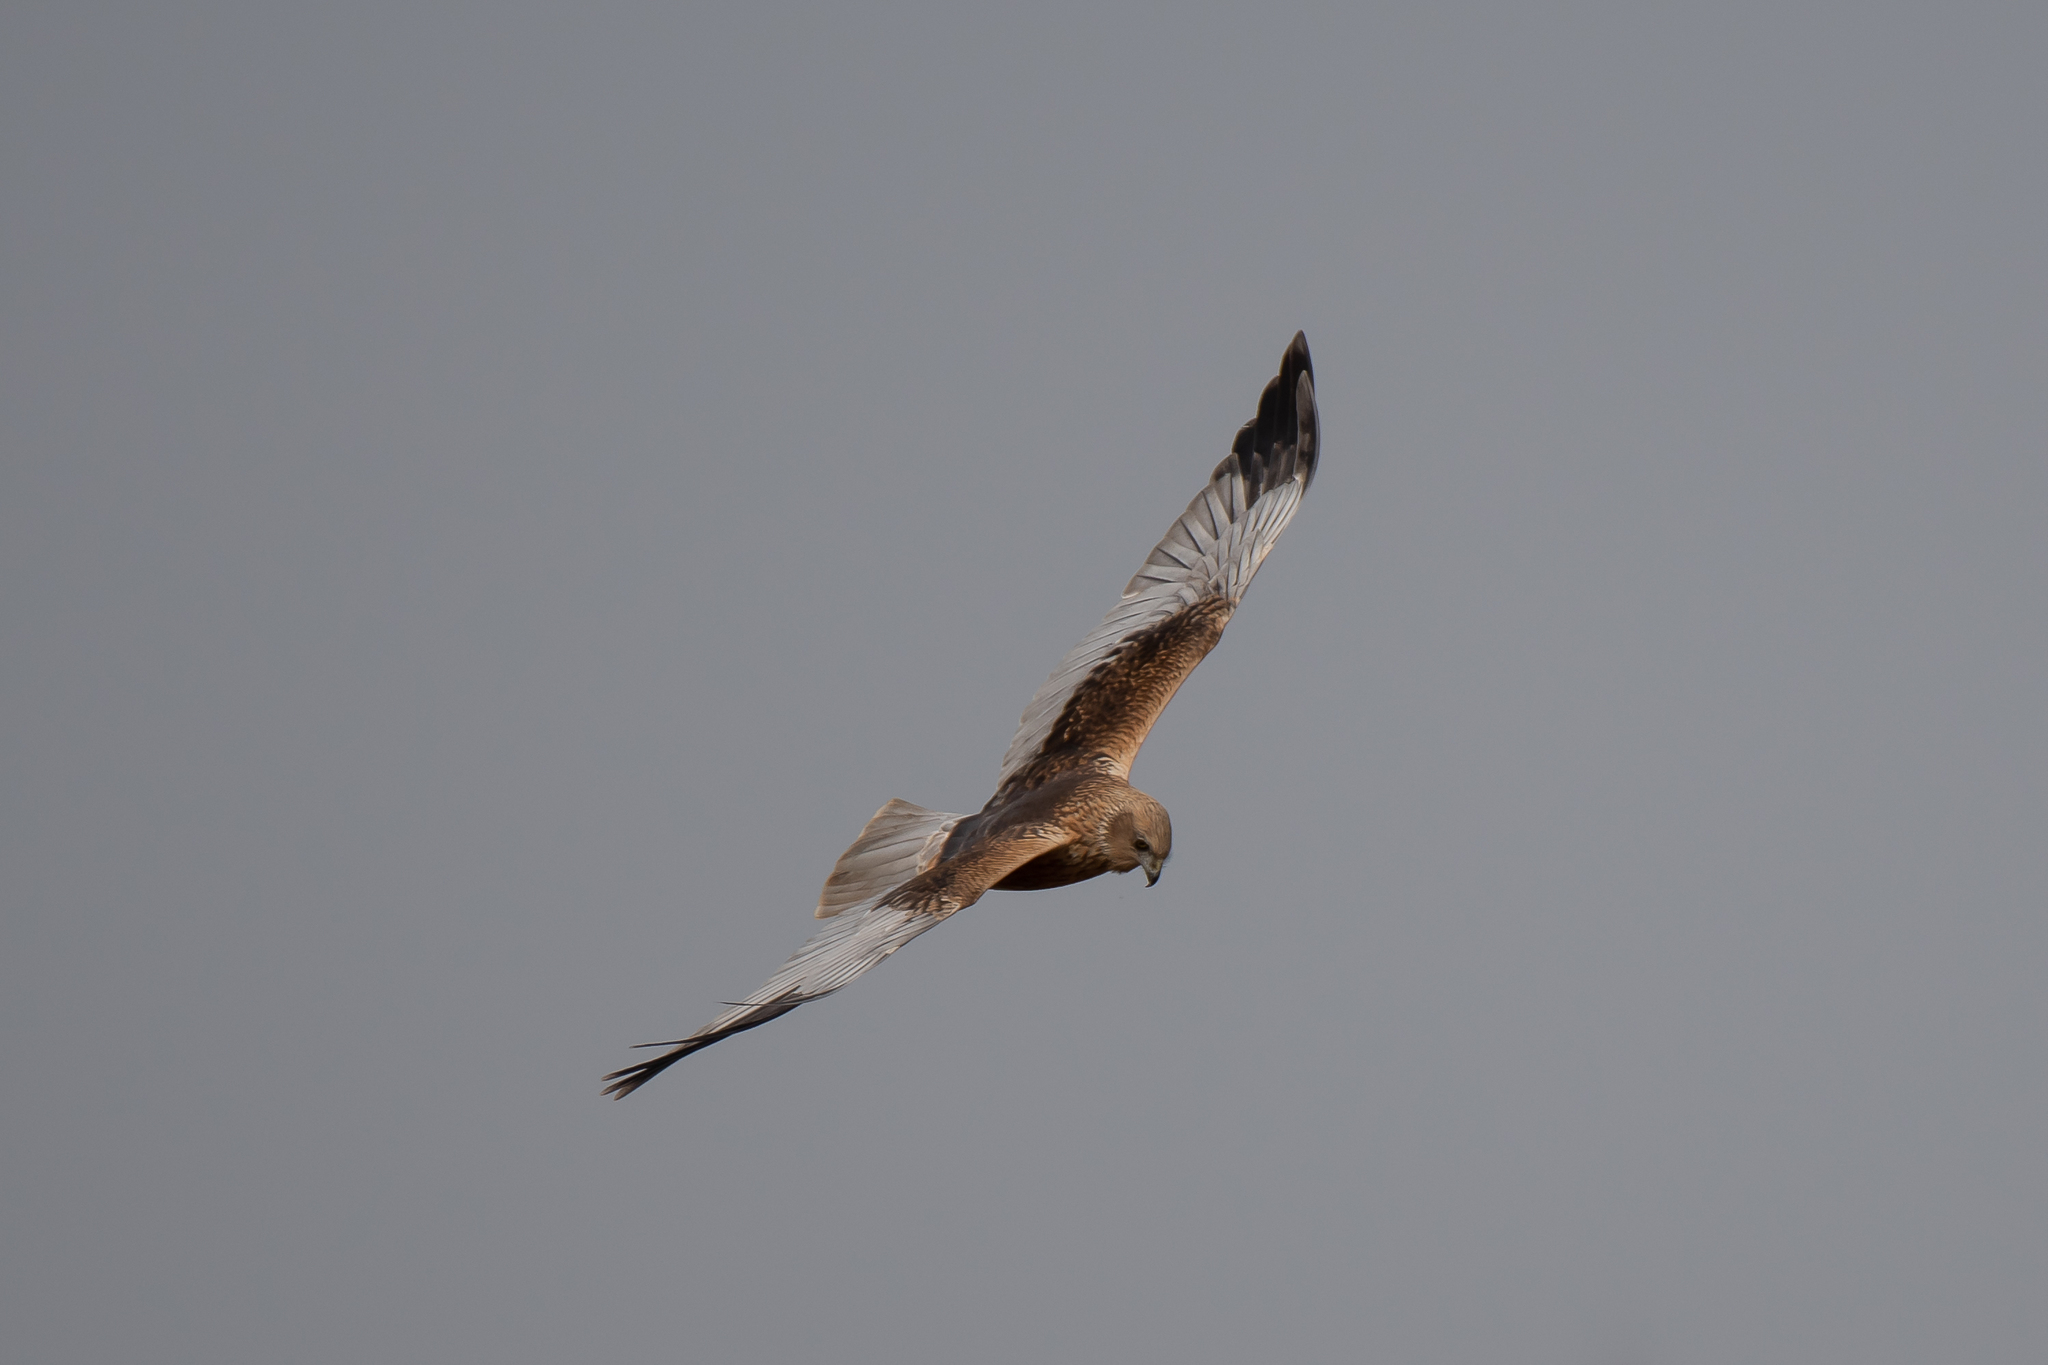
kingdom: Animalia
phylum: Chordata
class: Aves
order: Accipitriformes
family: Accipitridae
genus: Circus
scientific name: Circus aeruginosus
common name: Western marsh harrier
